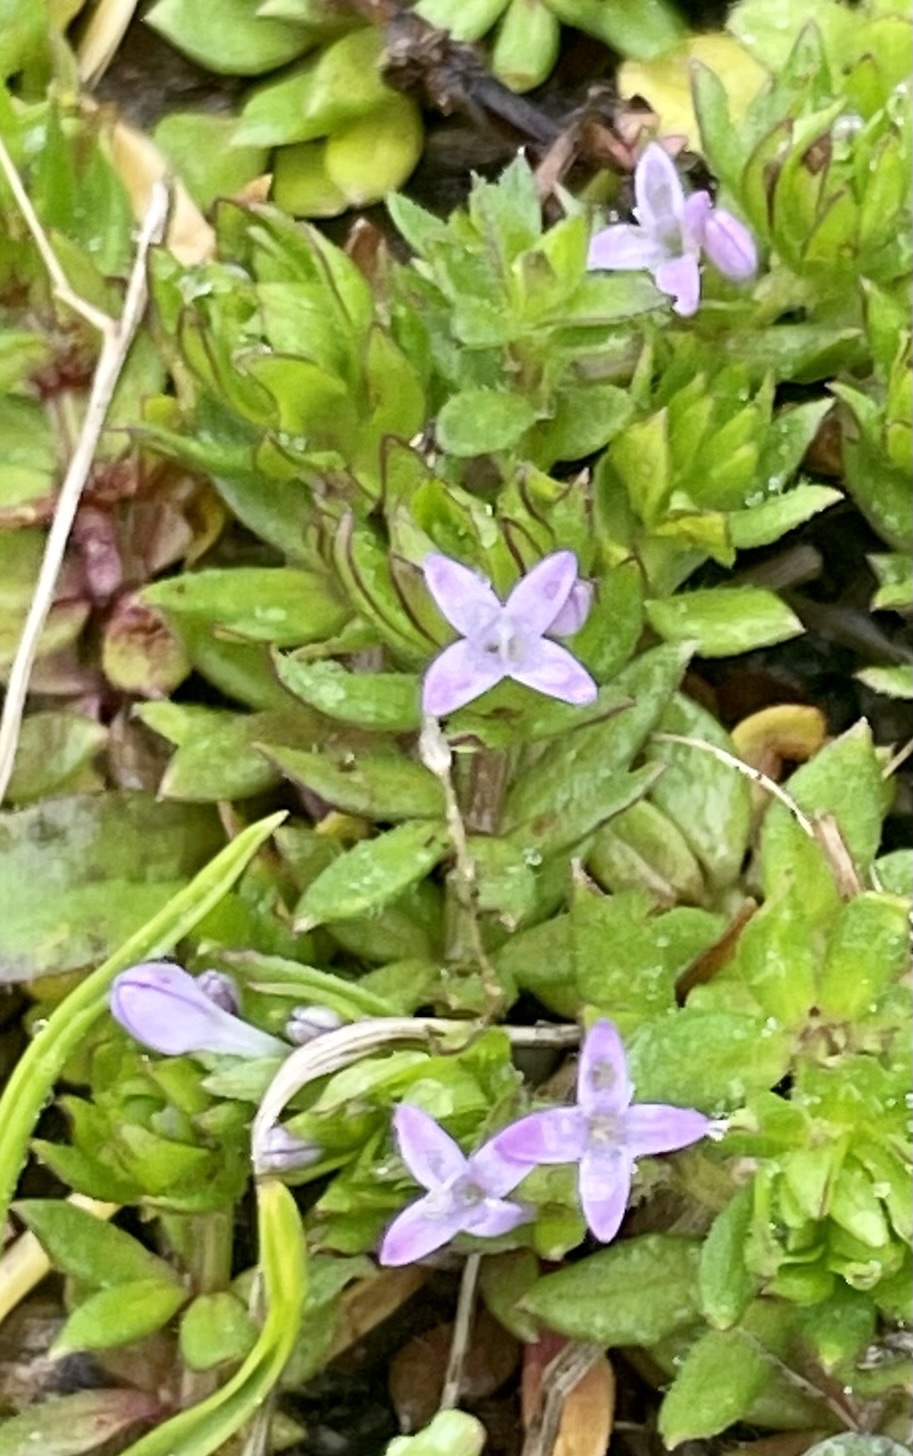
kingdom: Plantae
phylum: Tracheophyta
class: Magnoliopsida
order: Gentianales
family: Rubiaceae
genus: Sherardia
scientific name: Sherardia arvensis
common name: Field madder
